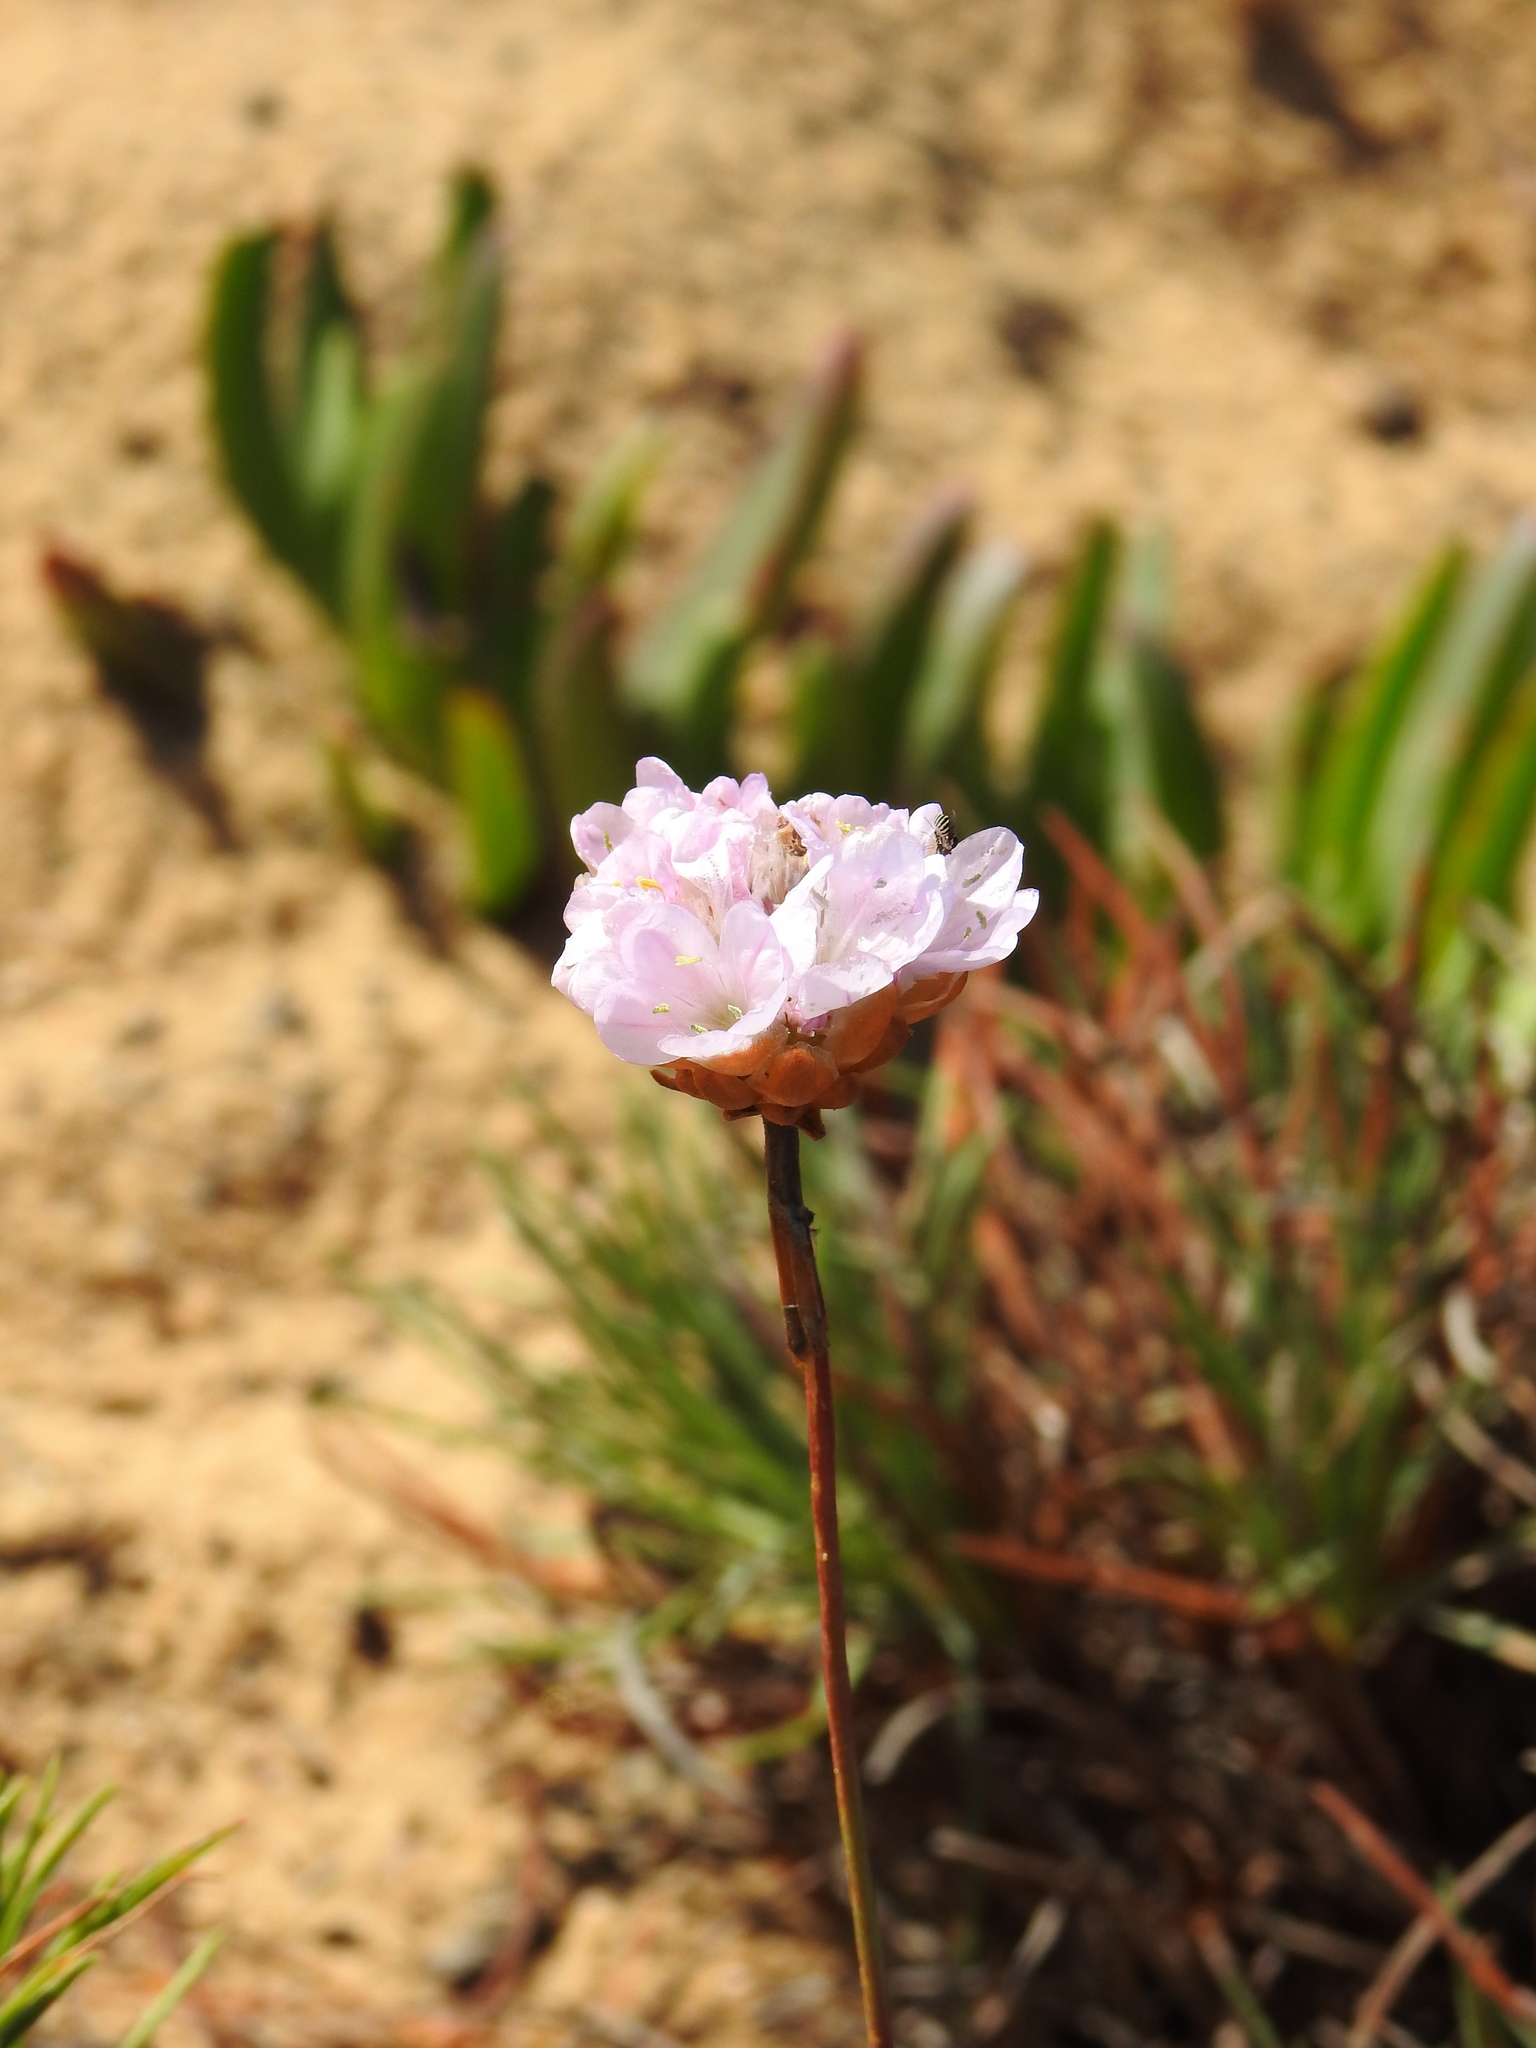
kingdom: Plantae
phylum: Tracheophyta
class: Magnoliopsida
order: Caryophyllales
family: Plumbaginaceae
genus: Armeria
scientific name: Armeria pungens
